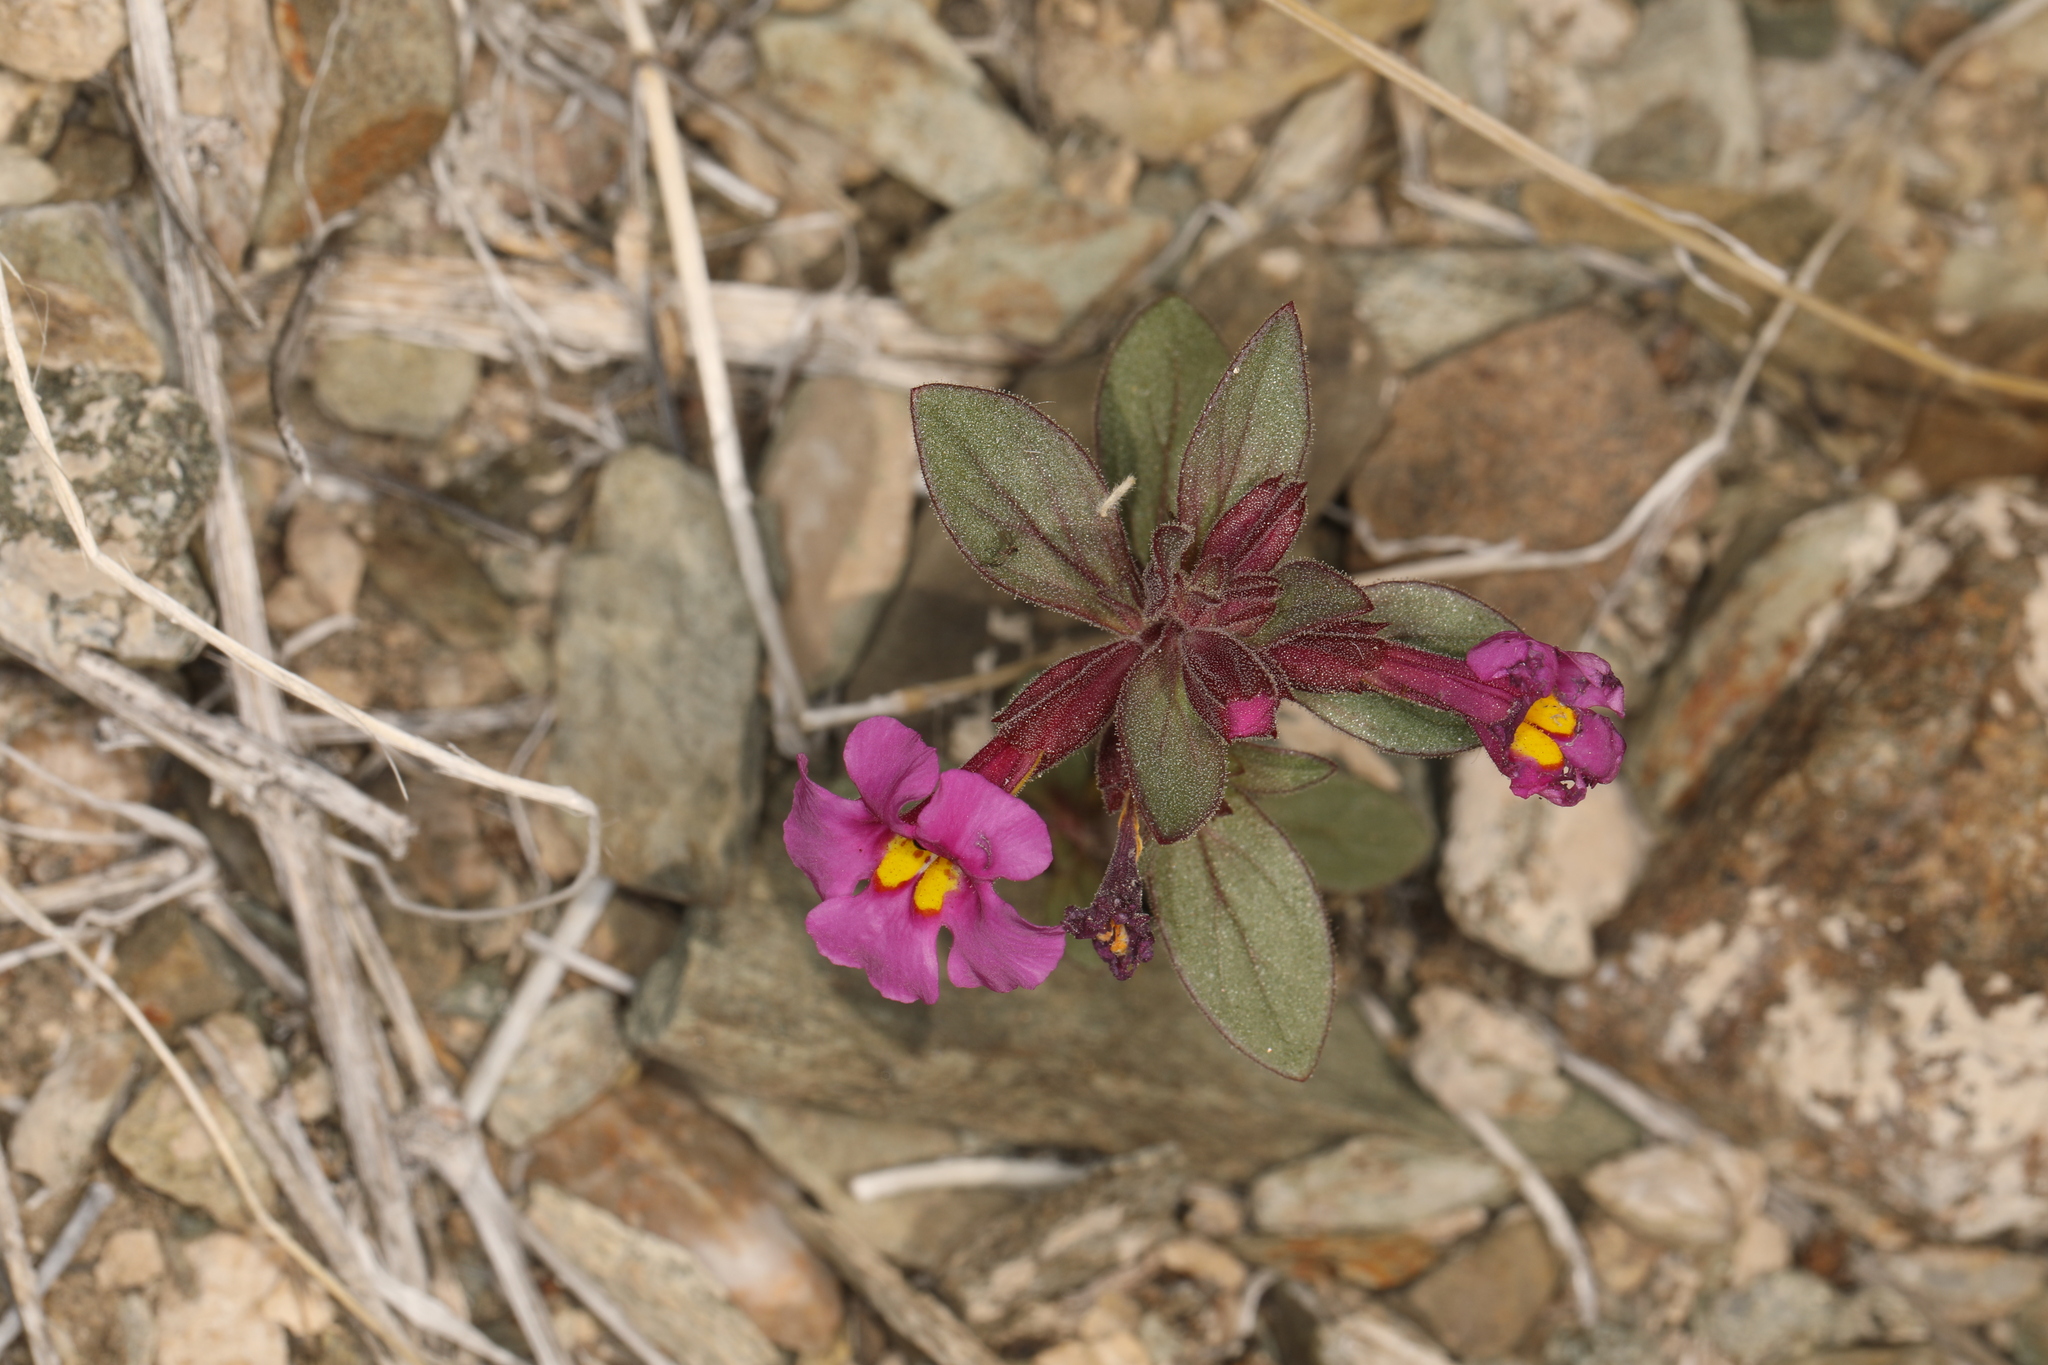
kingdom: Plantae
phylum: Tracheophyta
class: Magnoliopsida
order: Lamiales
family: Phrymaceae
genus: Diplacus
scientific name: Diplacus parryi
